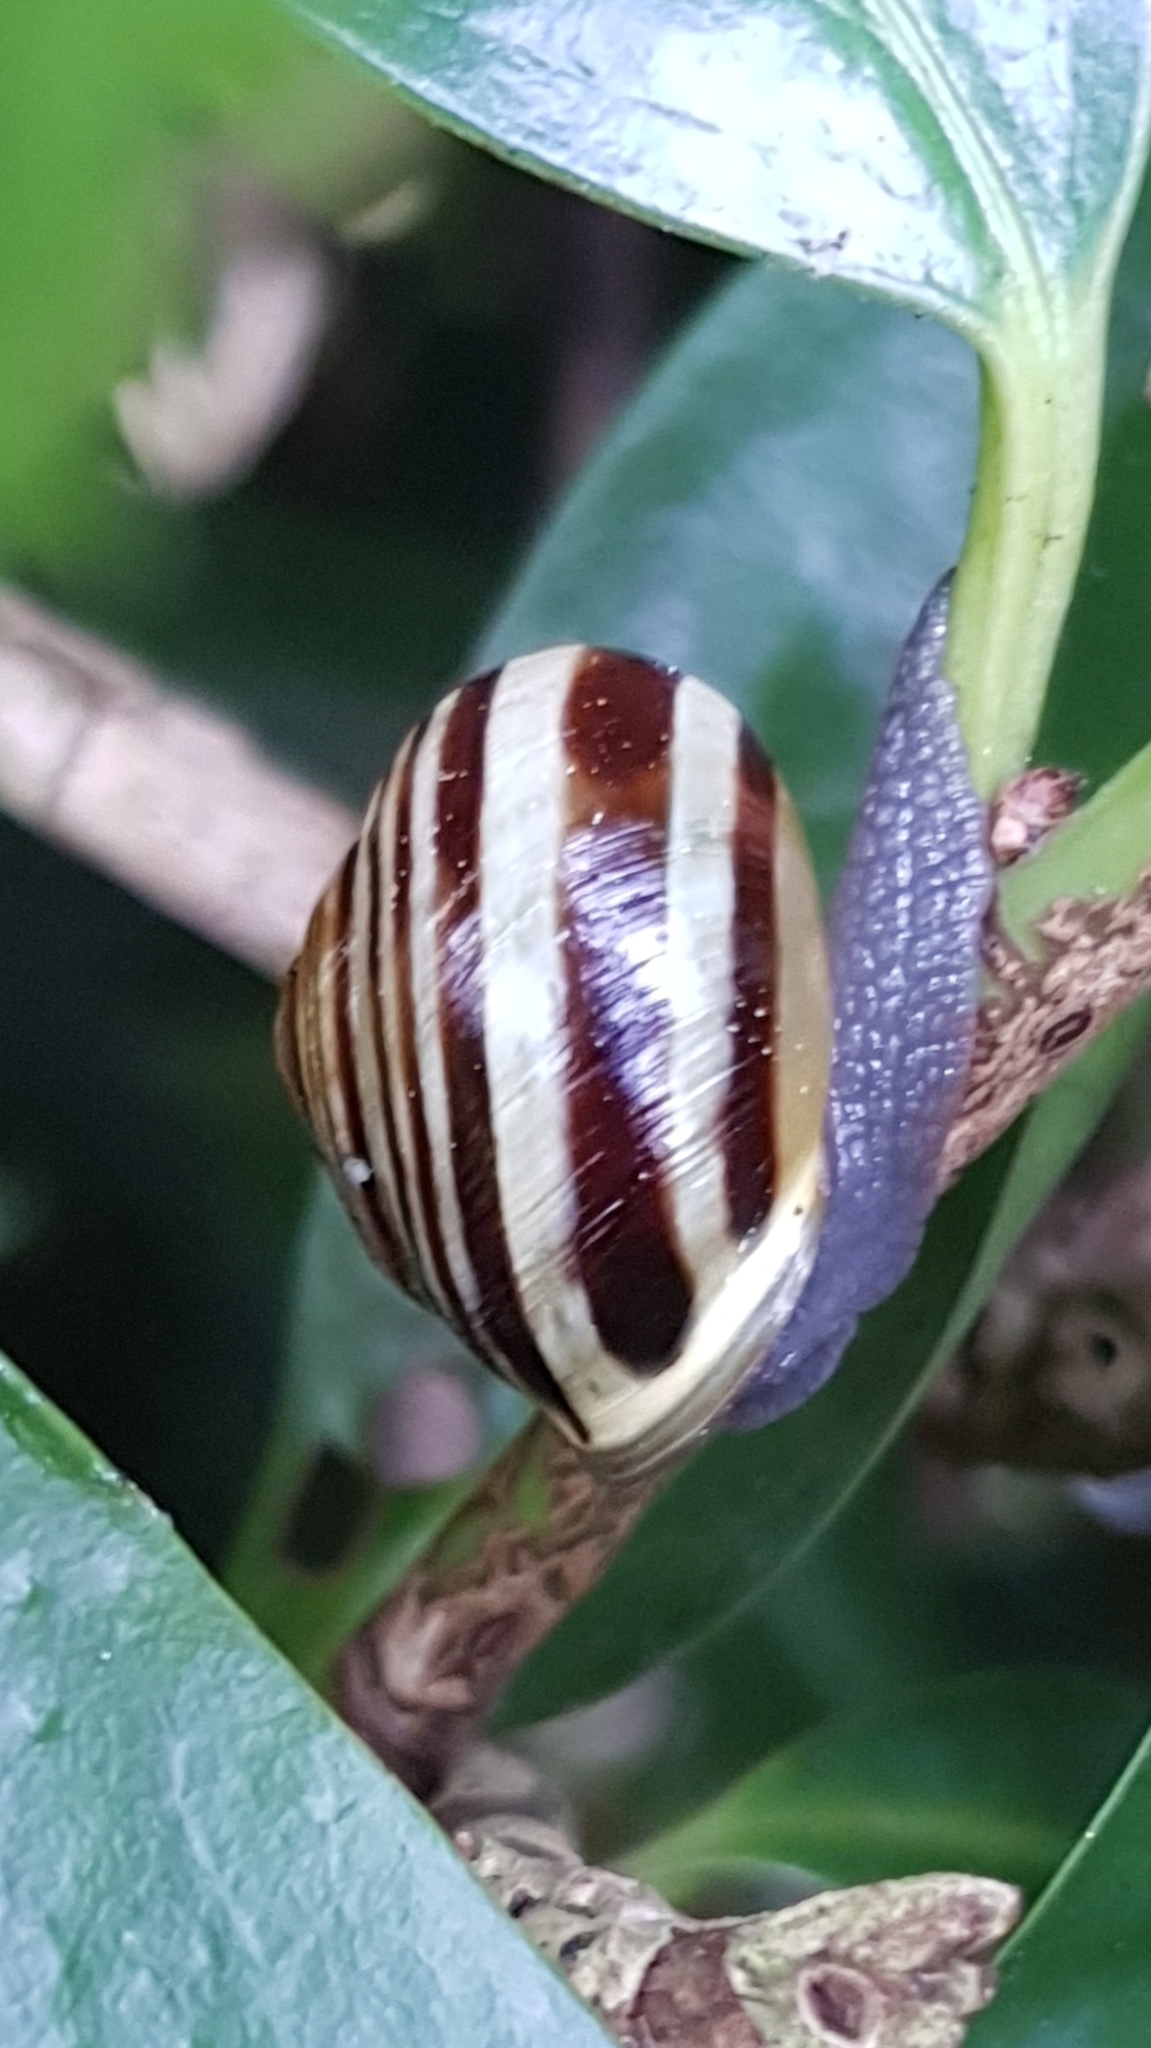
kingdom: Animalia
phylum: Mollusca
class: Gastropoda
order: Stylommatophora
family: Helicidae
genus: Cepaea
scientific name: Cepaea hortensis
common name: White-lip gardensnail
